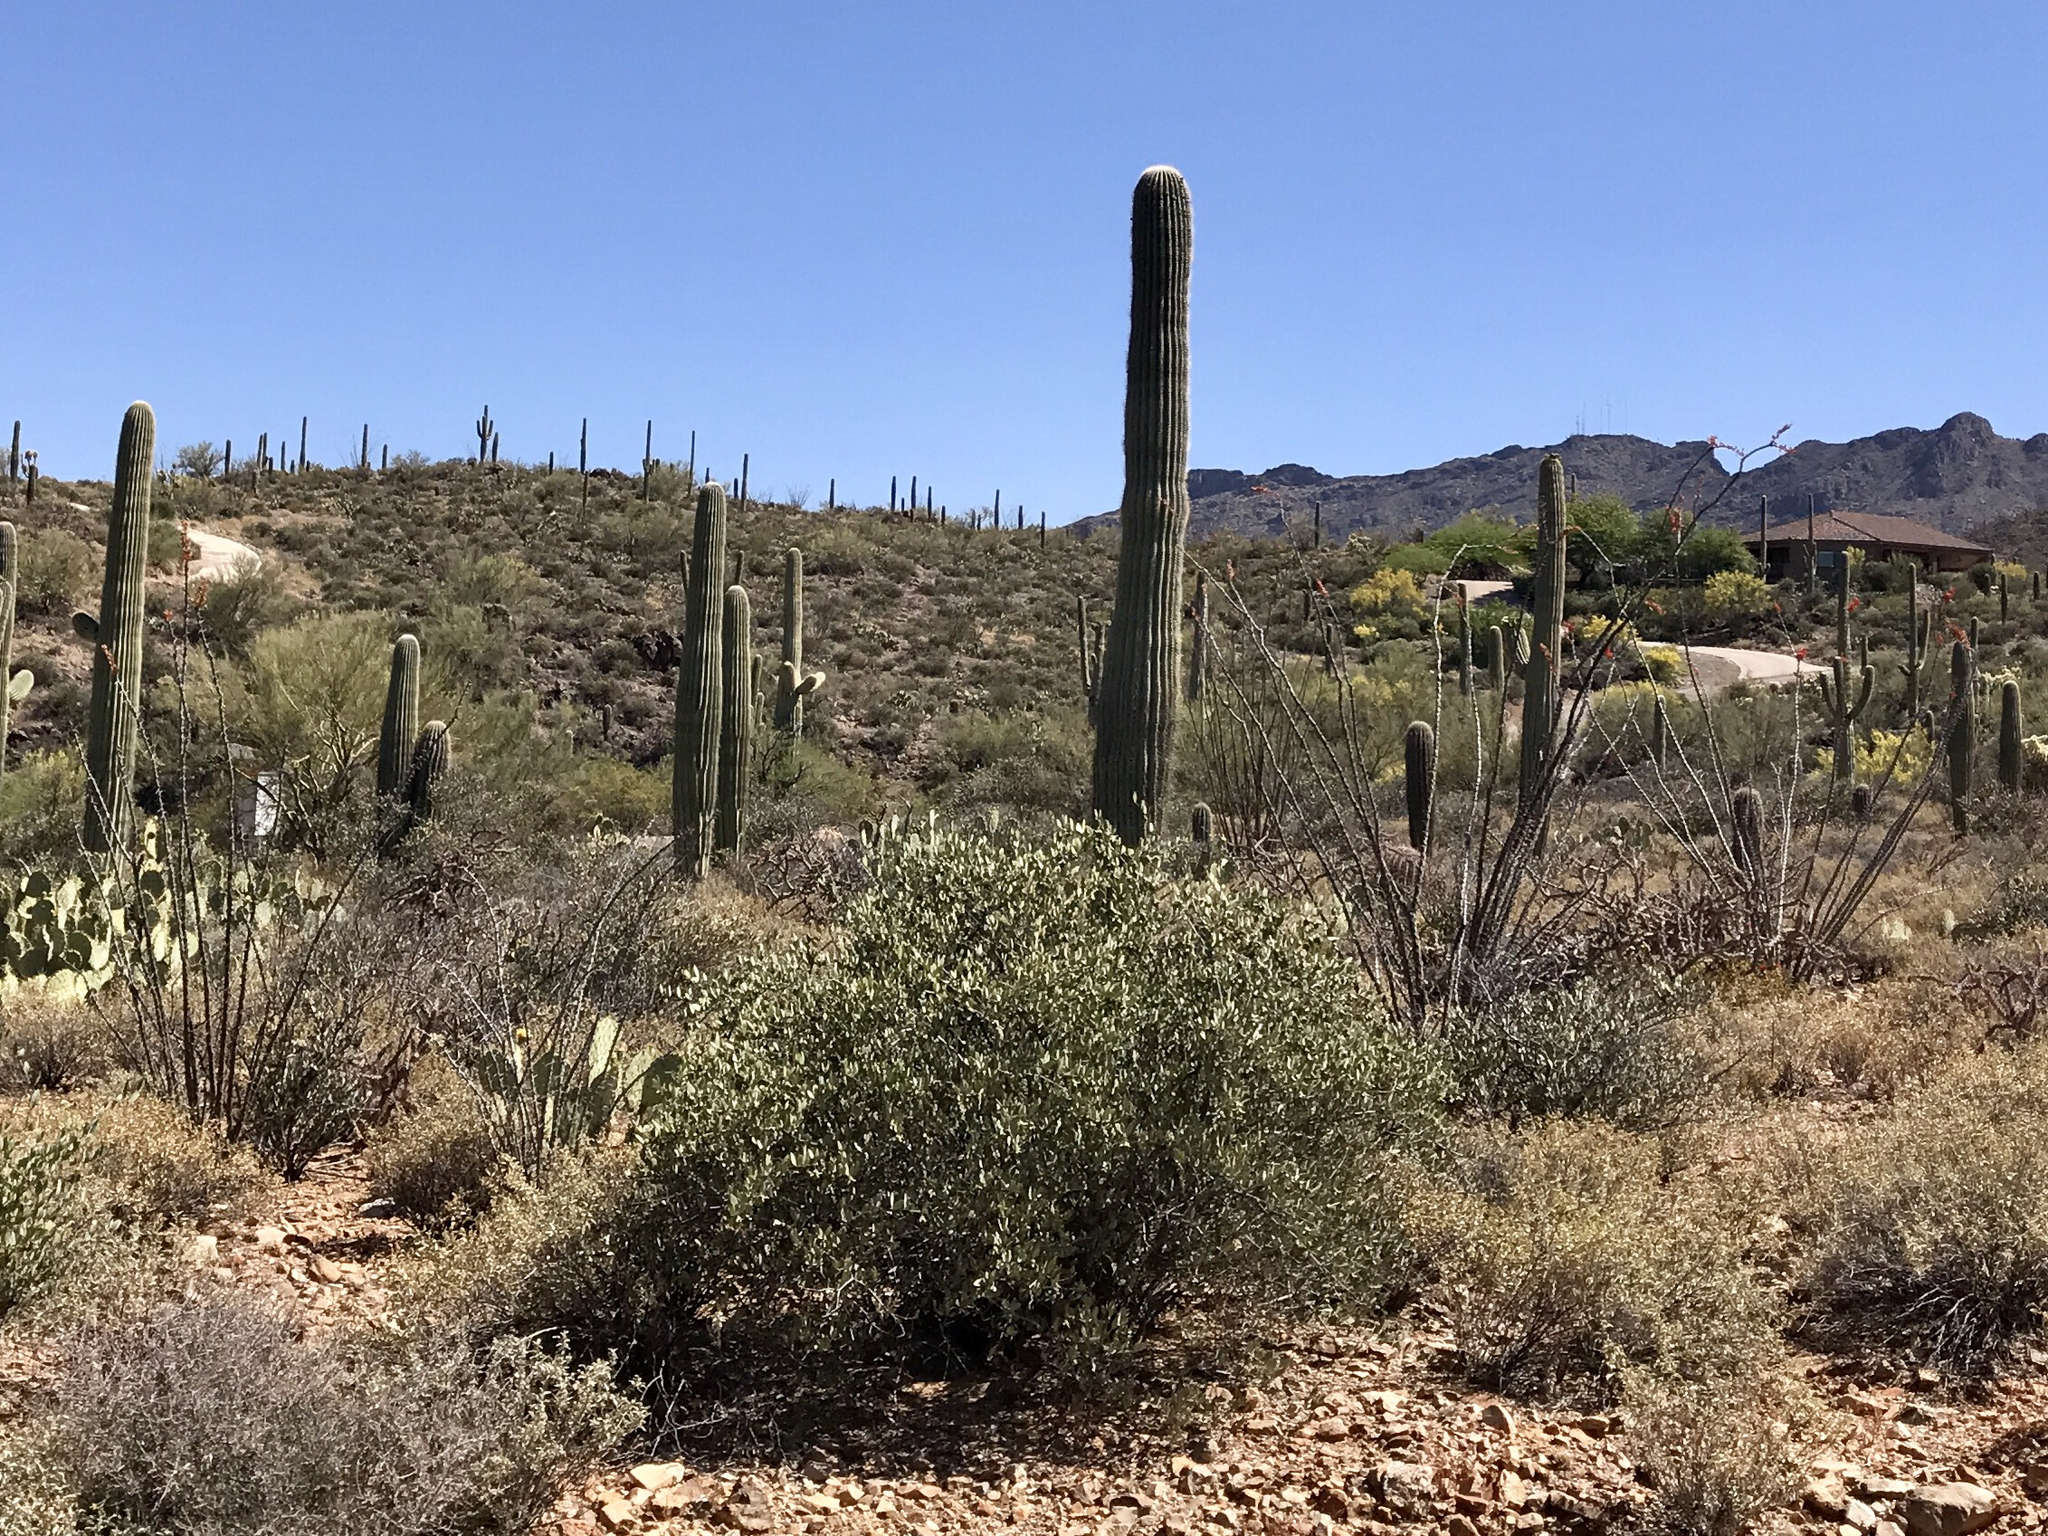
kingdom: Plantae
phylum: Tracheophyta
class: Magnoliopsida
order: Caryophyllales
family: Simmondsiaceae
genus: Simmondsia
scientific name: Simmondsia chinensis
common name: Jojoba
